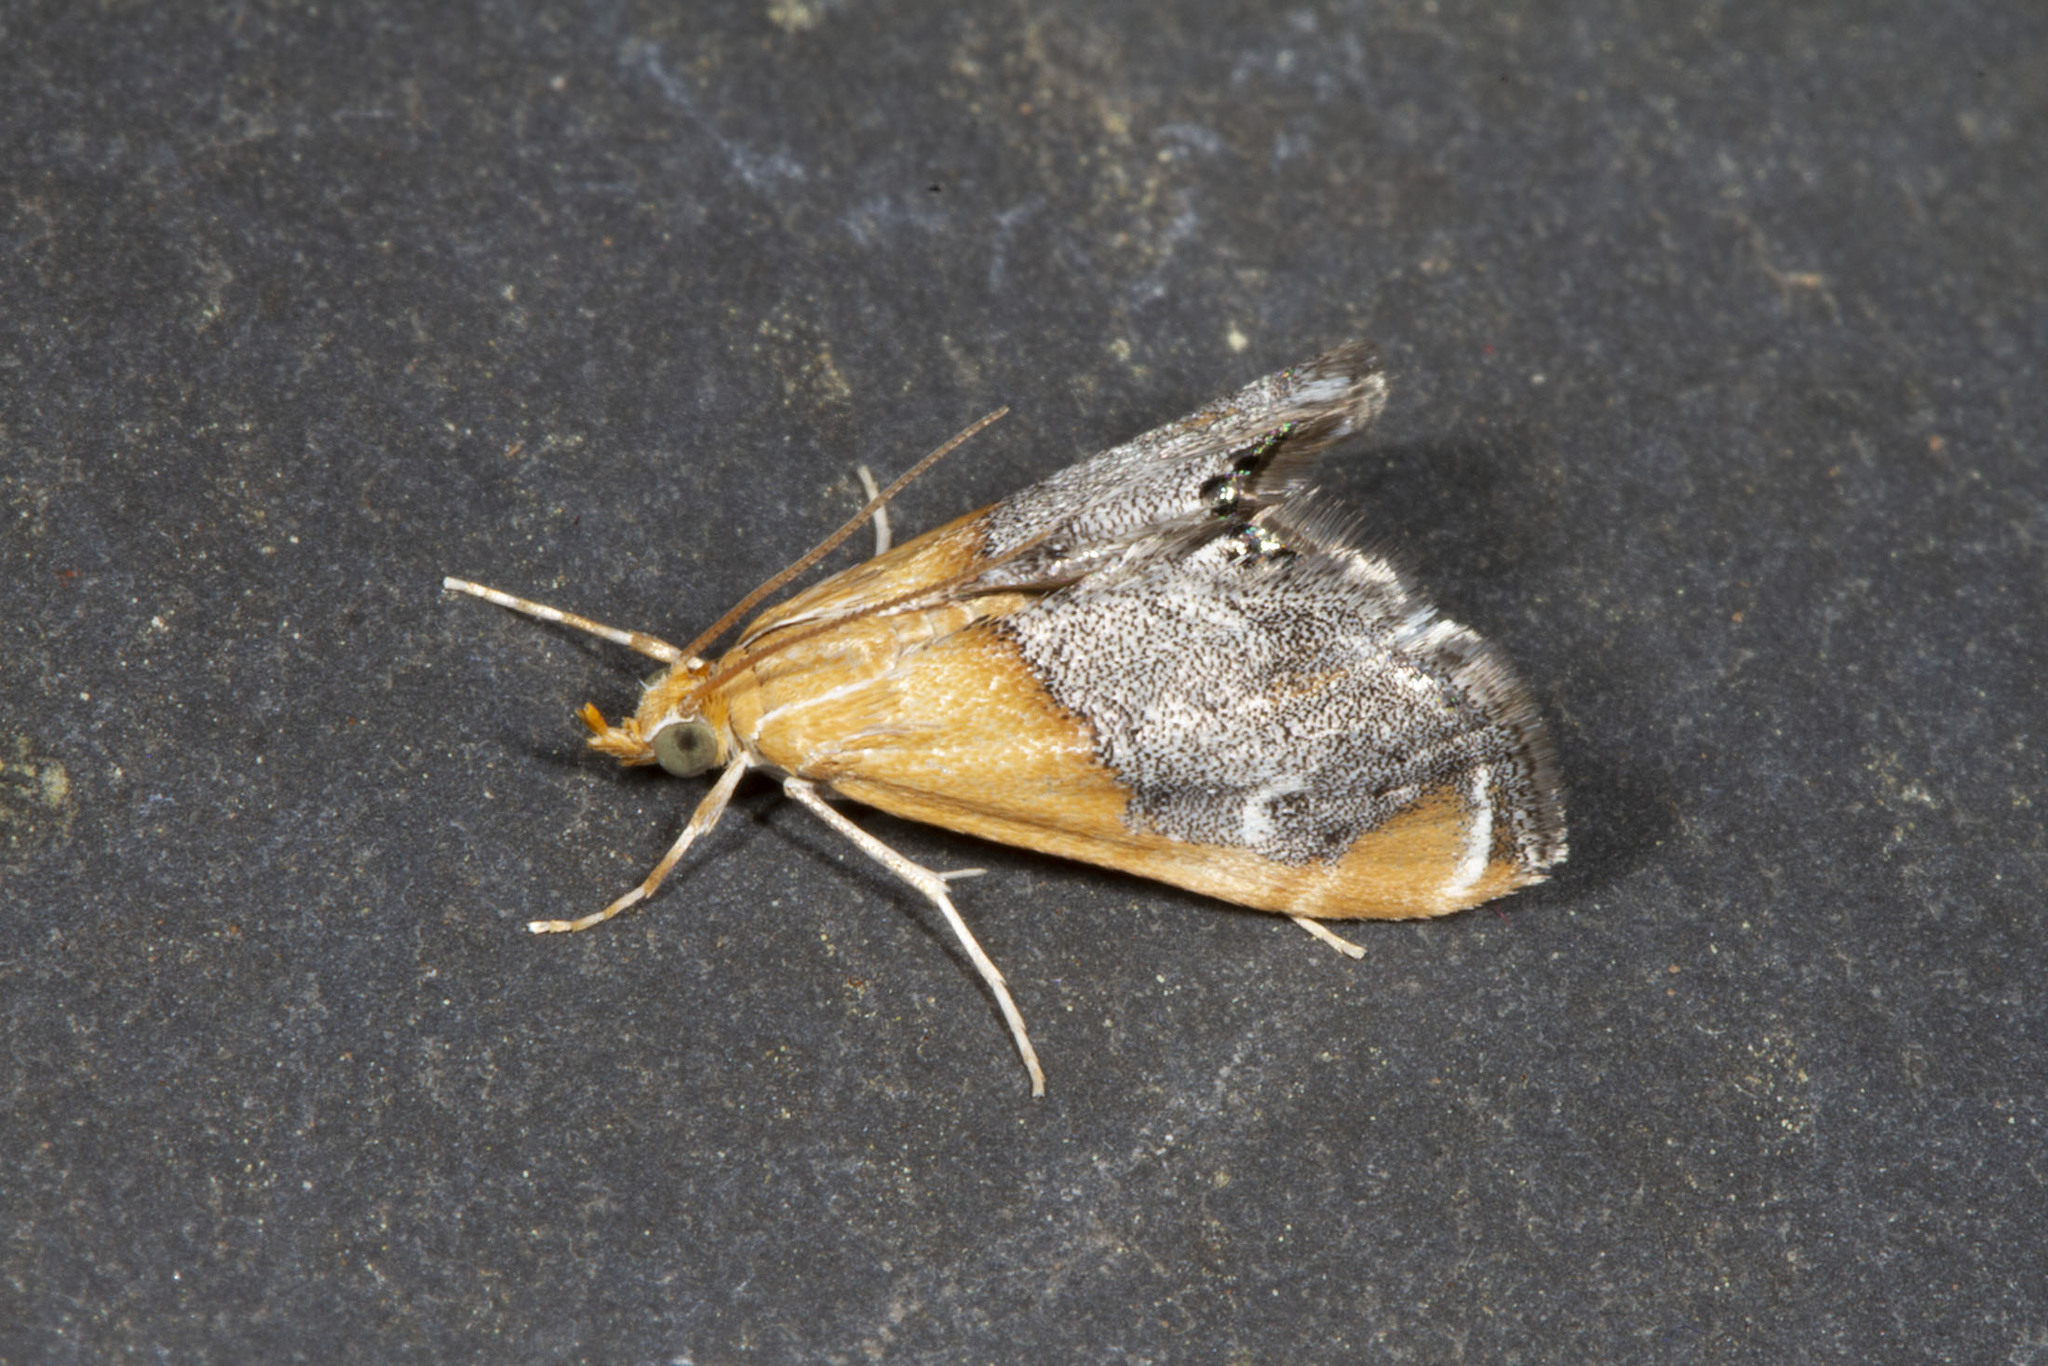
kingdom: Animalia
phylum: Arthropoda
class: Insecta
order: Lepidoptera
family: Crambidae
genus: Chalcoela
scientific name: Chalcoela iphitalis
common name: Sooty-winged chalcoela moth
